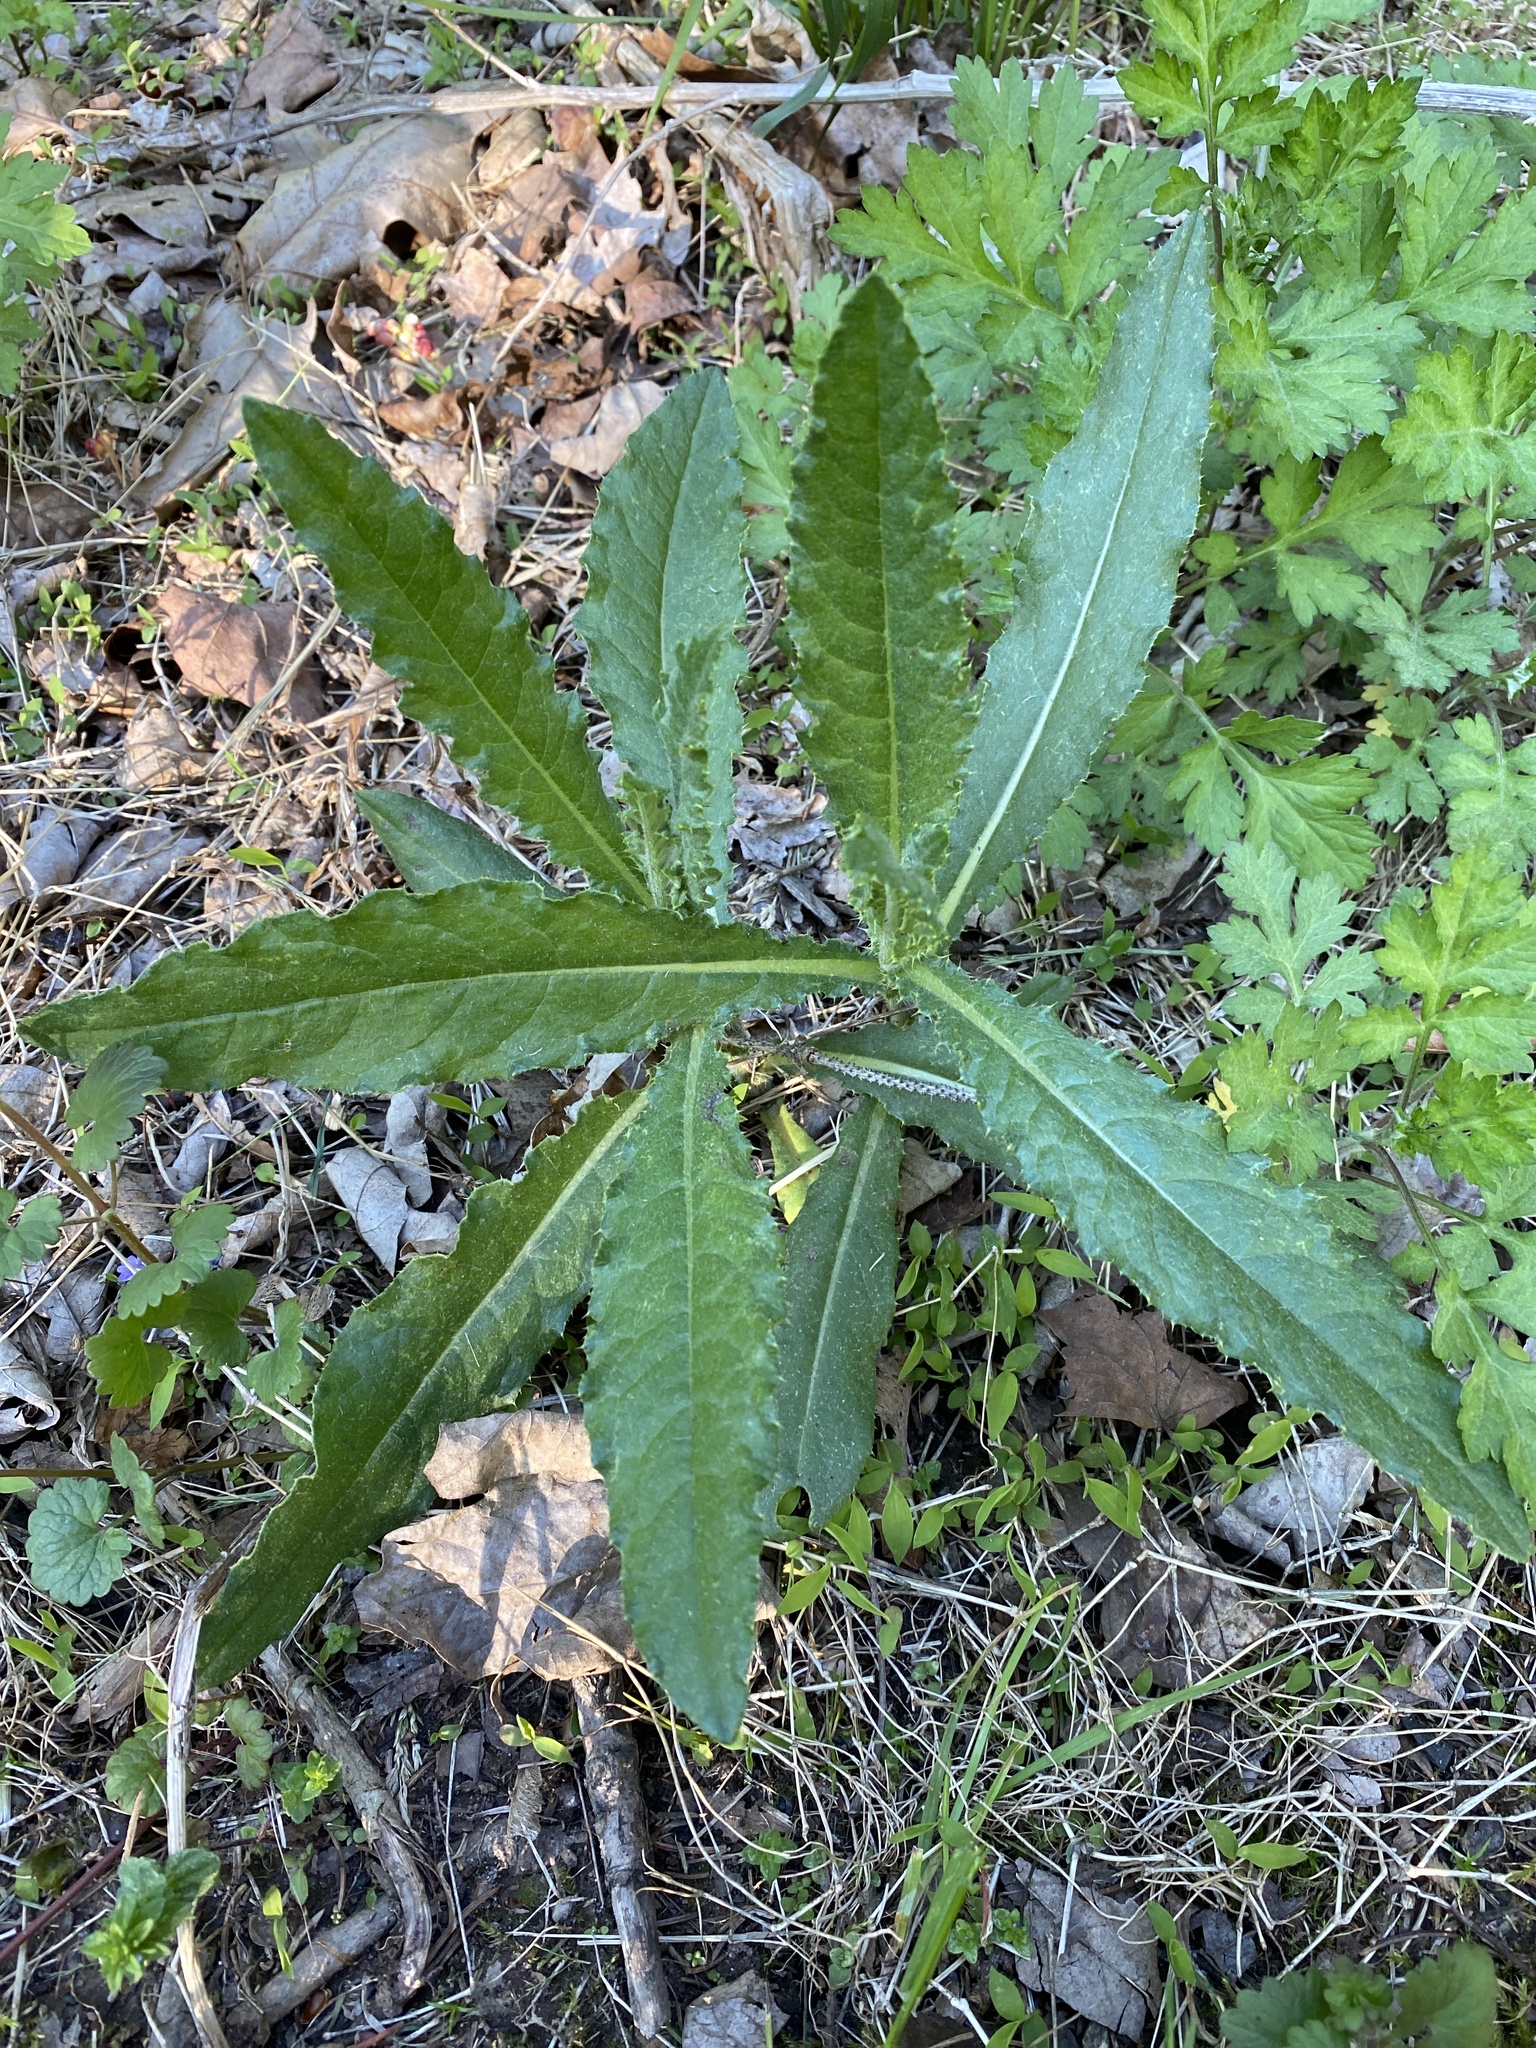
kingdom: Plantae
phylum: Tracheophyta
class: Magnoliopsida
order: Asterales
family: Asteraceae
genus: Cirsium
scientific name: Cirsium pumilum
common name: Pasture thistle
